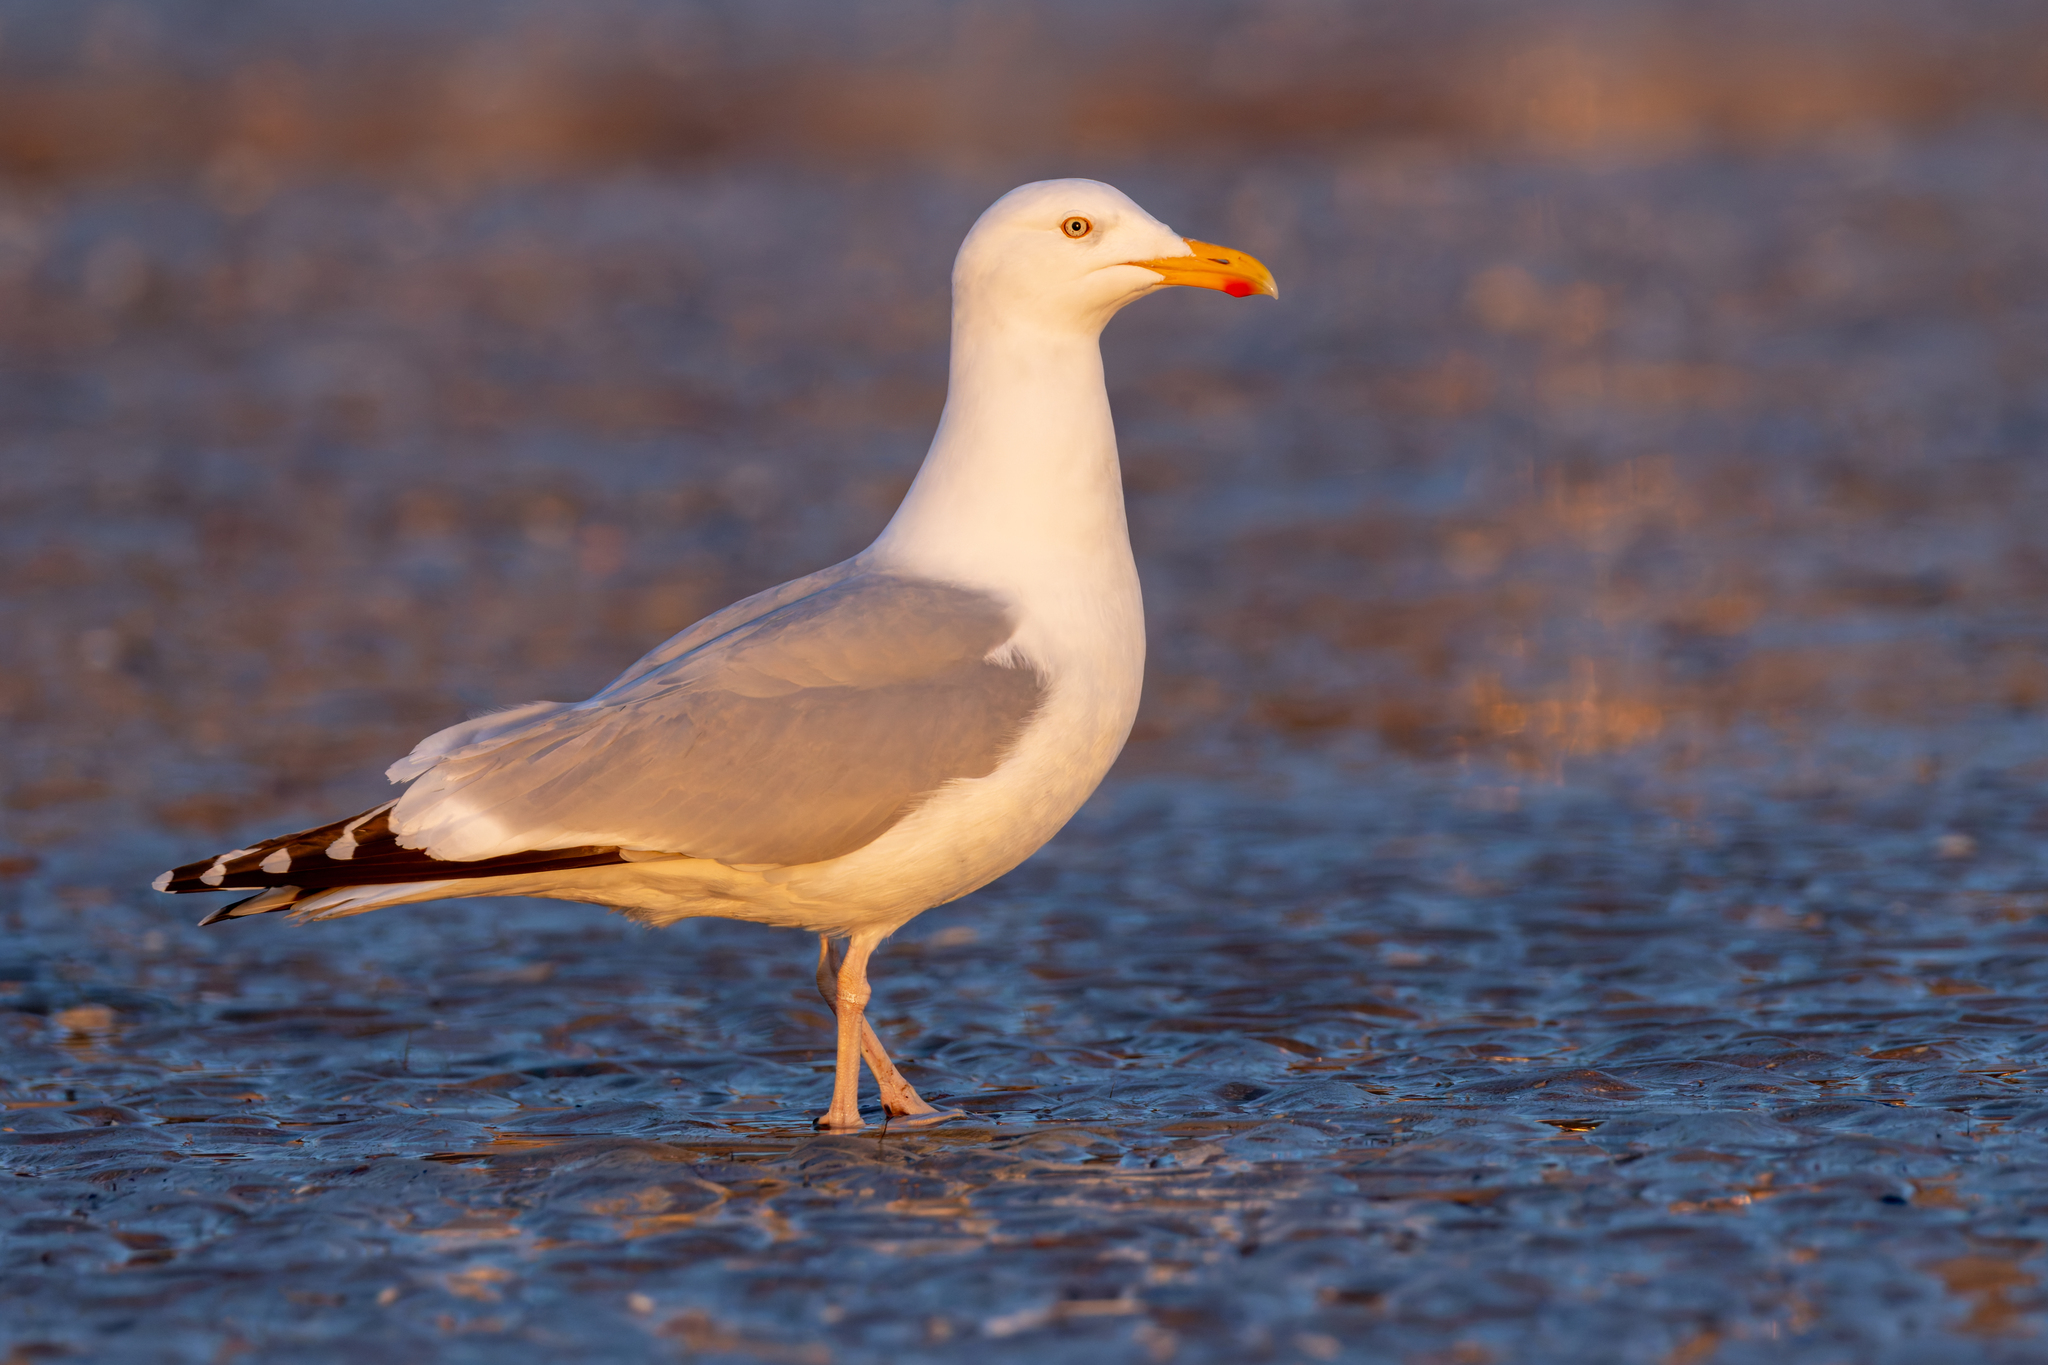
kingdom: Animalia
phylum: Chordata
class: Aves
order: Charadriiformes
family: Laridae
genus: Larus
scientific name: Larus argentatus
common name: Herring gull
